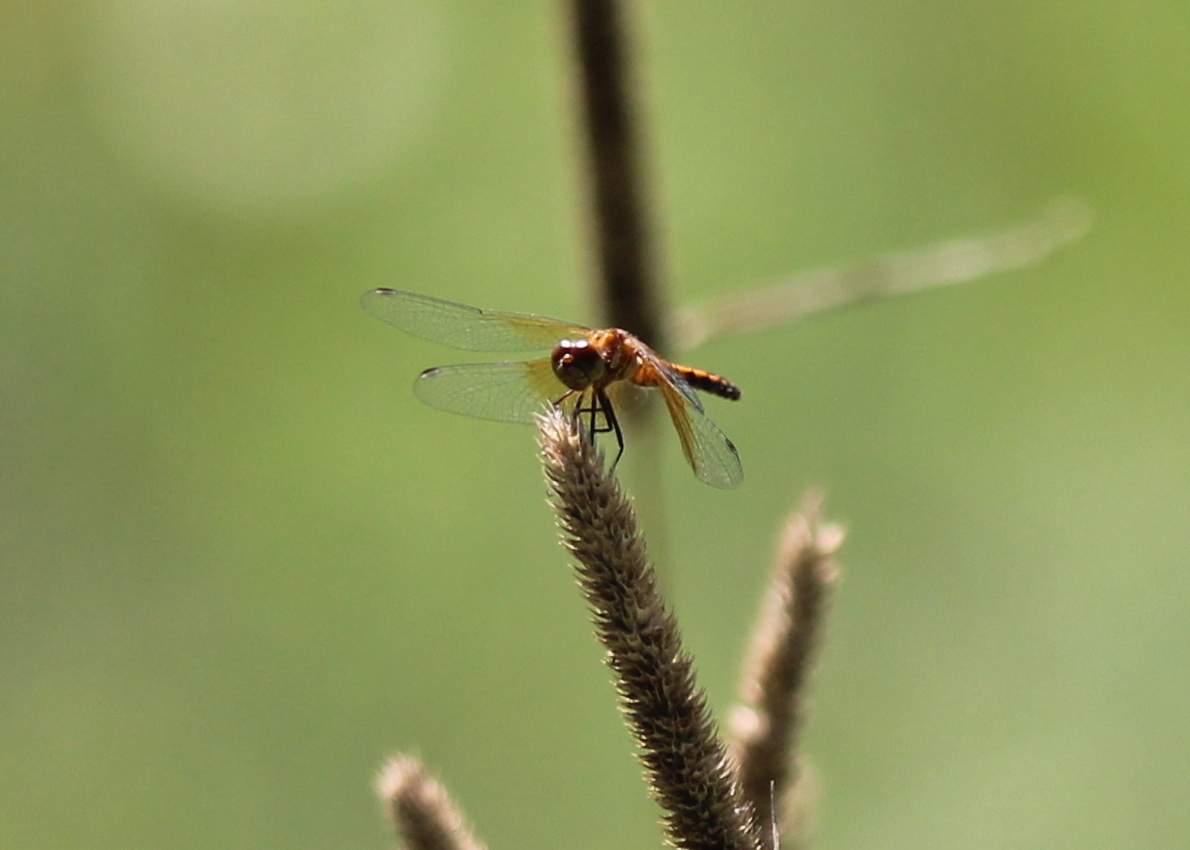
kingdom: Animalia
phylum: Arthropoda
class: Insecta
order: Odonata
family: Libellulidae
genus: Sympetrum
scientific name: Sympetrum semicinctum
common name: Band-winged meadowhawk
